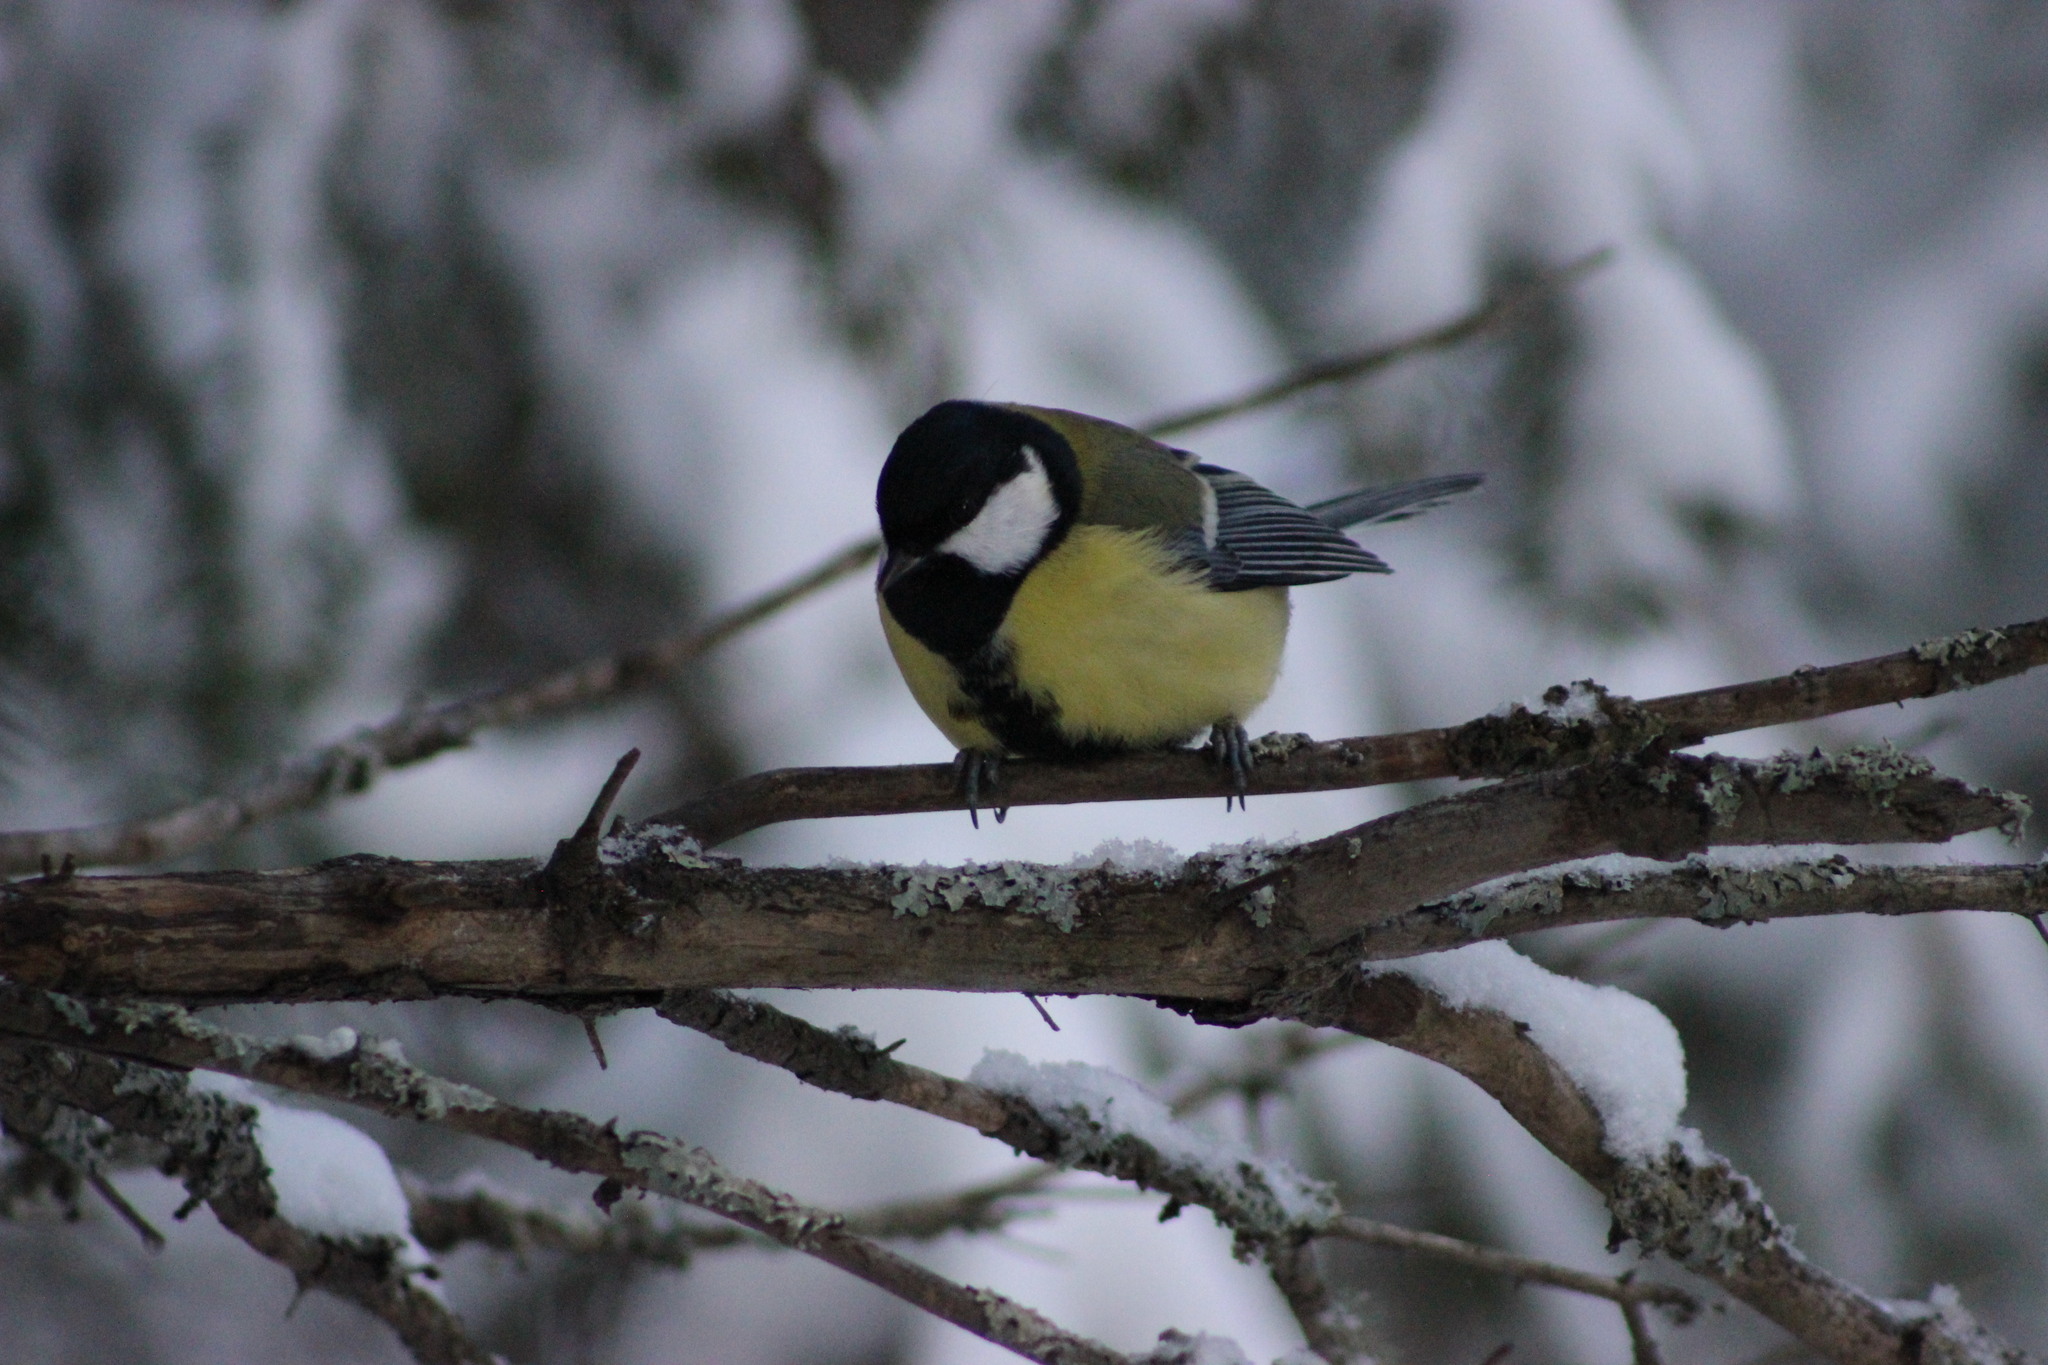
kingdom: Animalia
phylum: Chordata
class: Aves
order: Passeriformes
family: Paridae
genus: Parus
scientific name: Parus major
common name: Great tit
